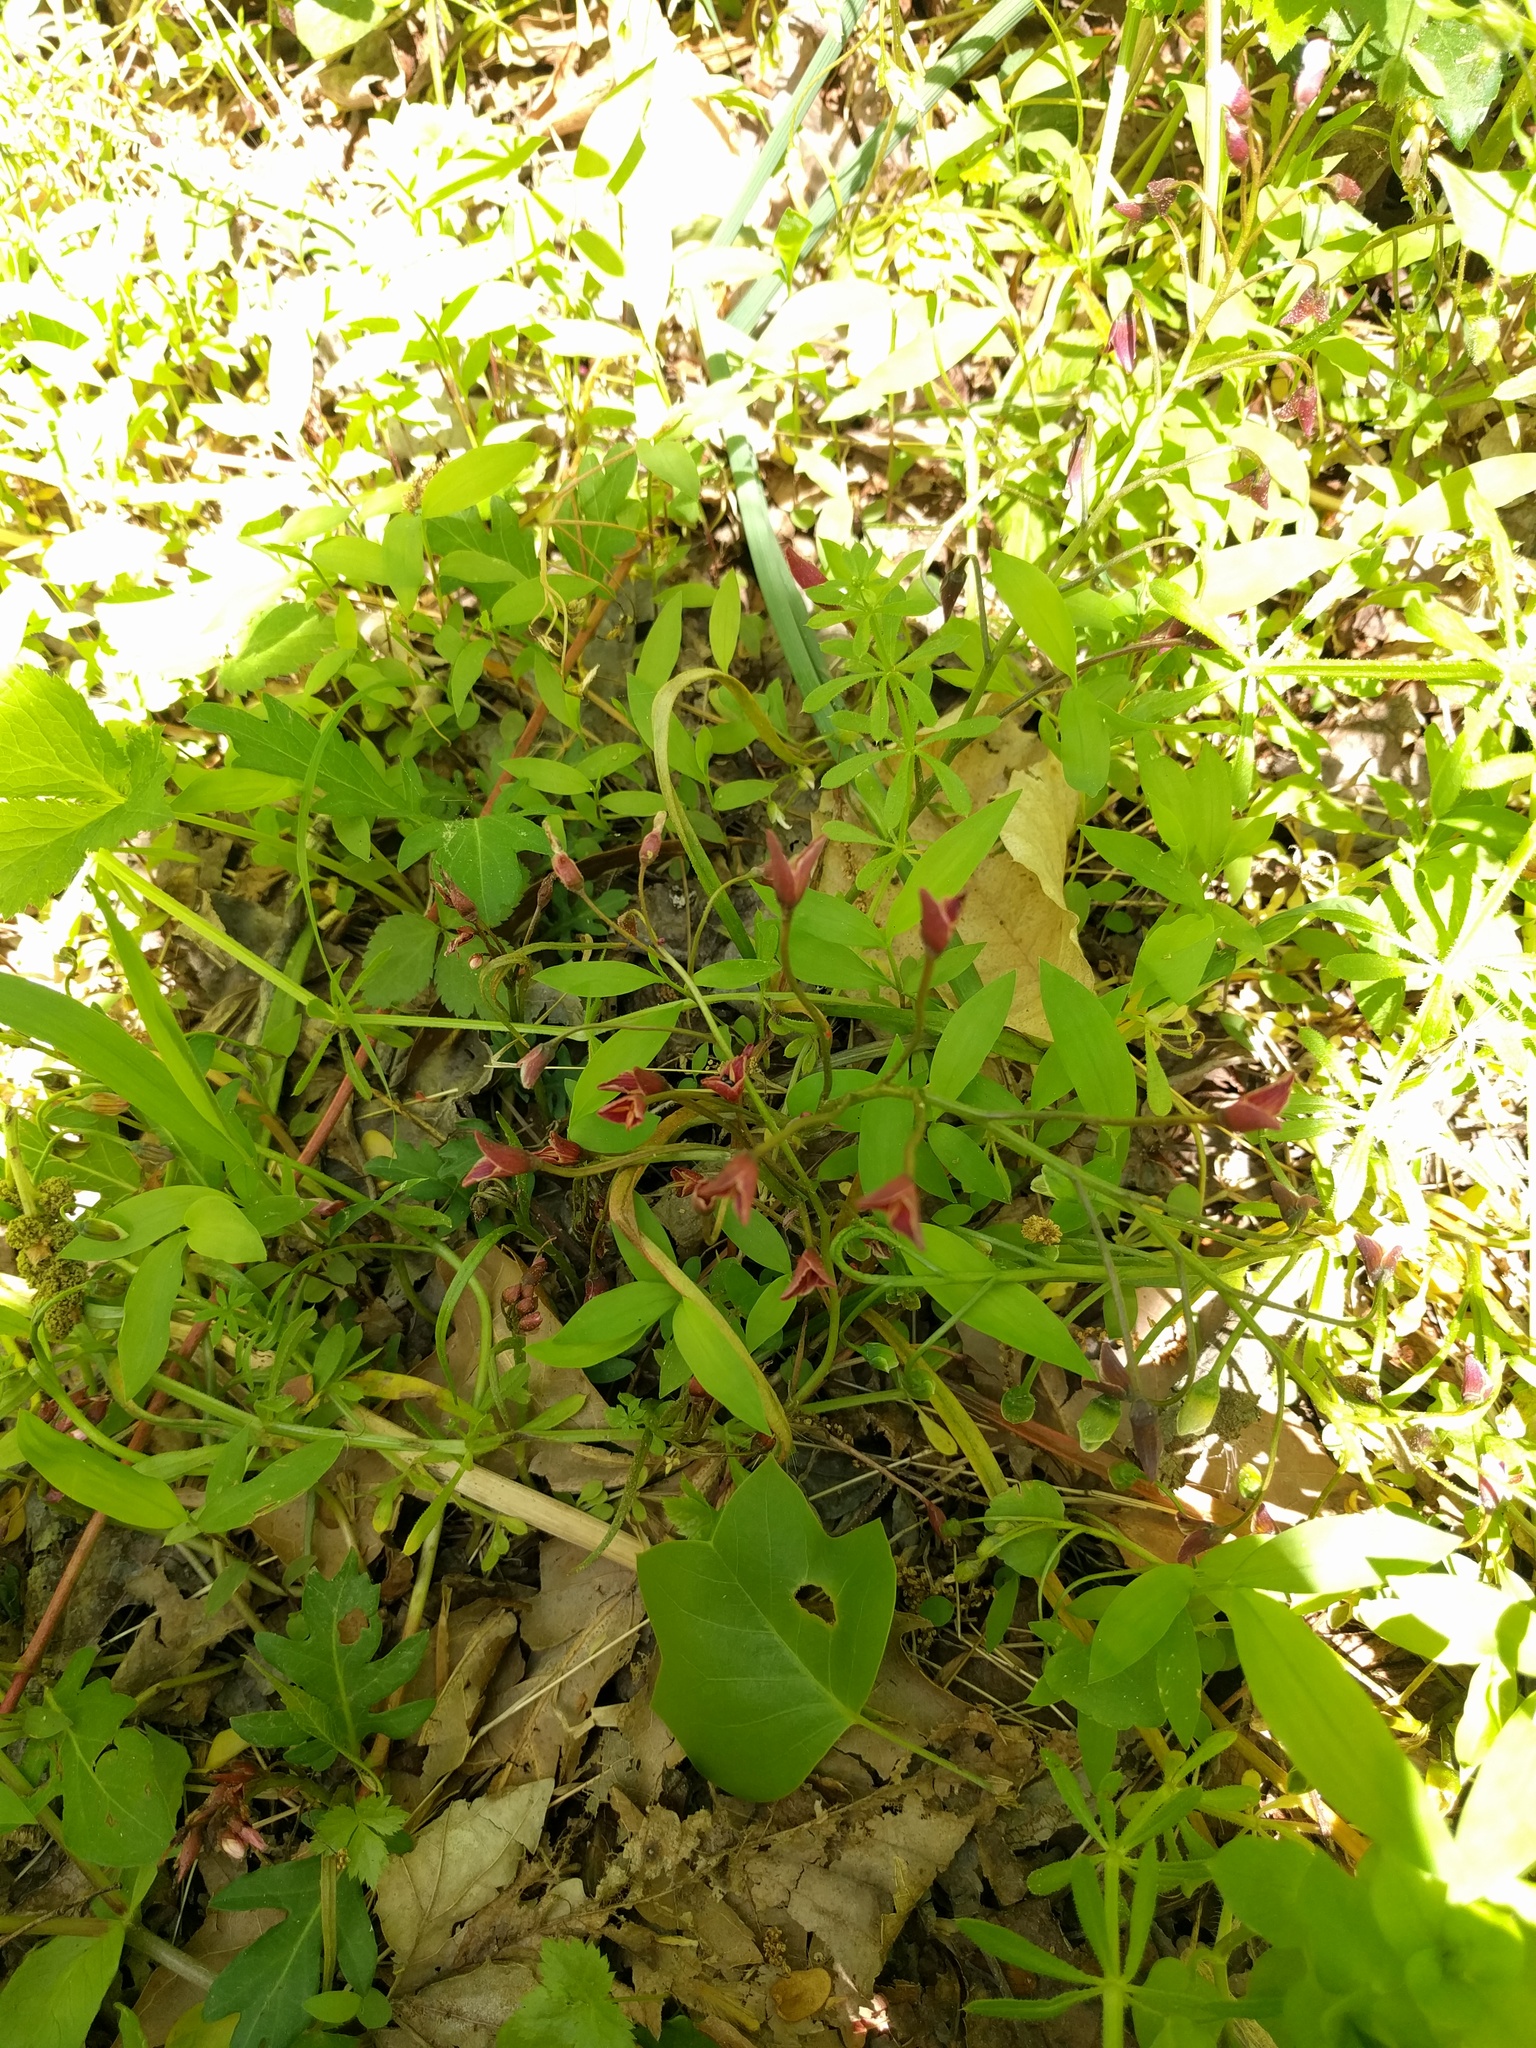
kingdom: Plantae
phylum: Tracheophyta
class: Magnoliopsida
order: Caryophyllales
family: Montiaceae
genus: Claytonia
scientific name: Claytonia virginica
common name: Virginia springbeauty
